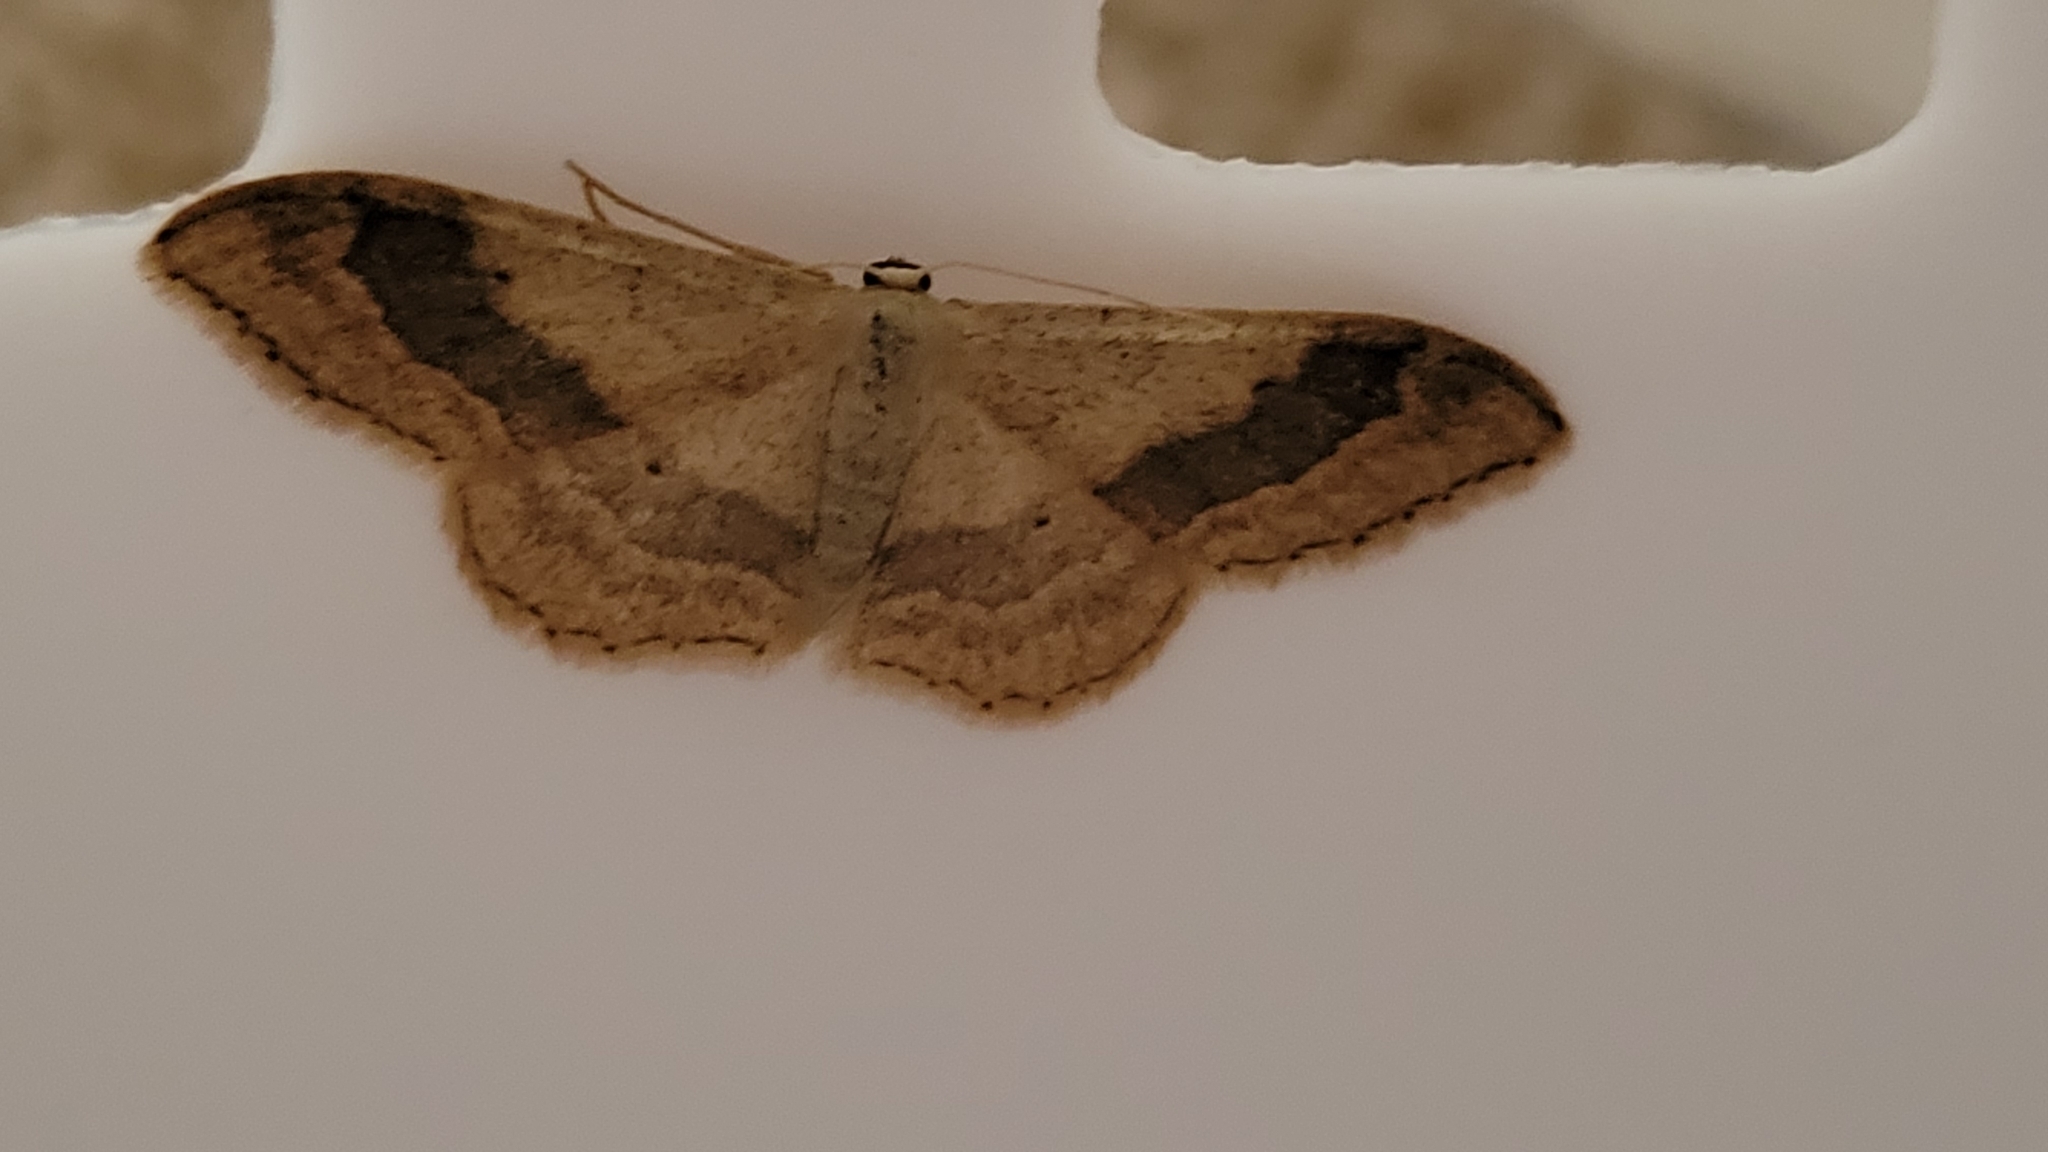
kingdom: Animalia
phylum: Arthropoda
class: Insecta
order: Lepidoptera
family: Geometridae
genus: Idaea
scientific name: Idaea aversata
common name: Riband wave
